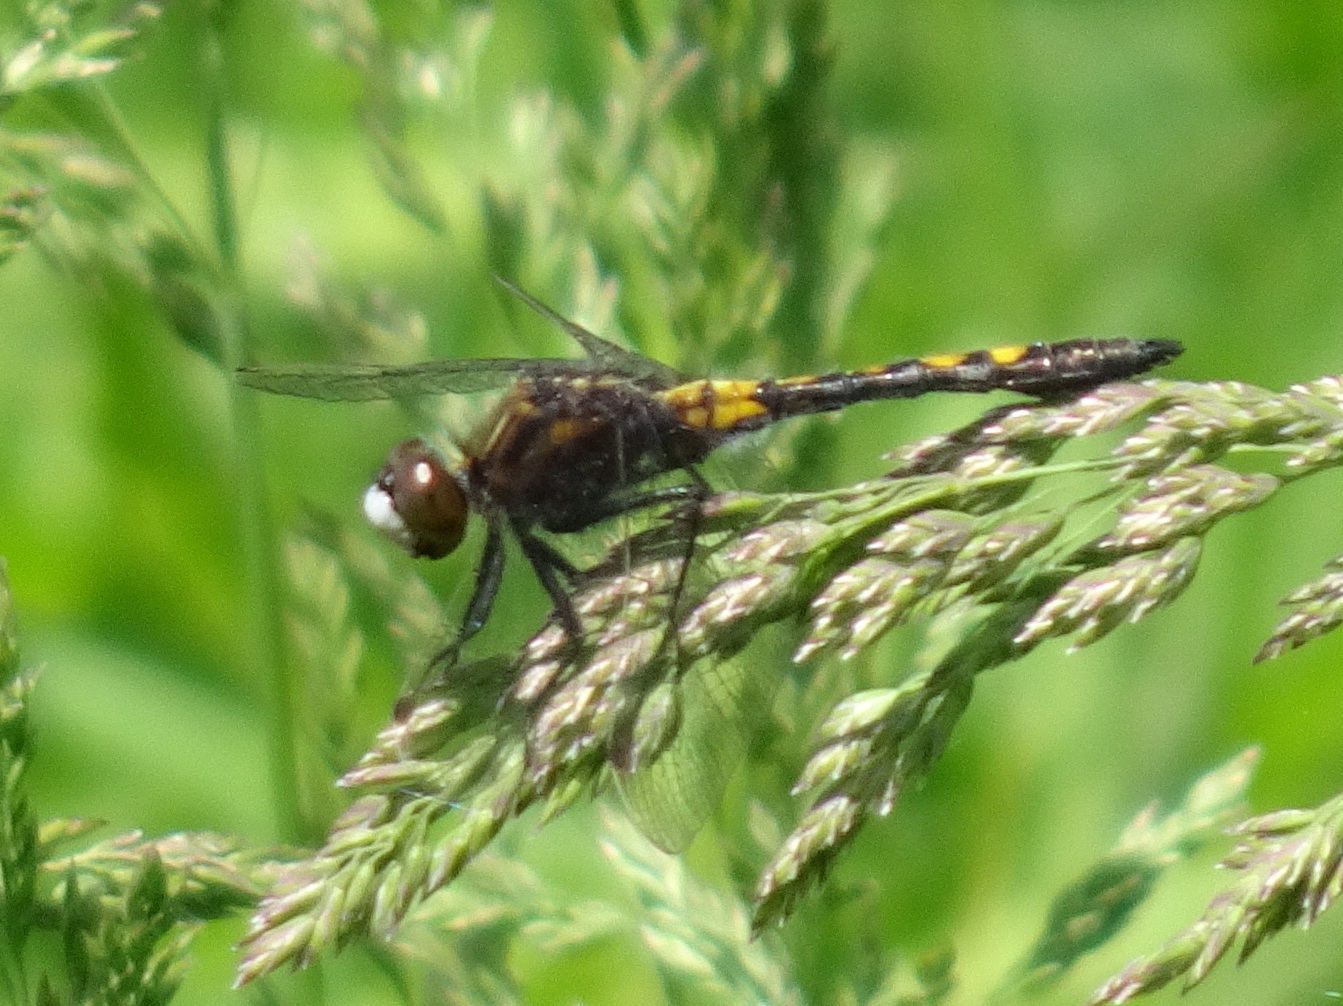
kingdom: Animalia
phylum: Arthropoda
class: Insecta
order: Odonata
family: Libellulidae
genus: Leucorrhinia
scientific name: Leucorrhinia intacta
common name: Dot-tailed whiteface
